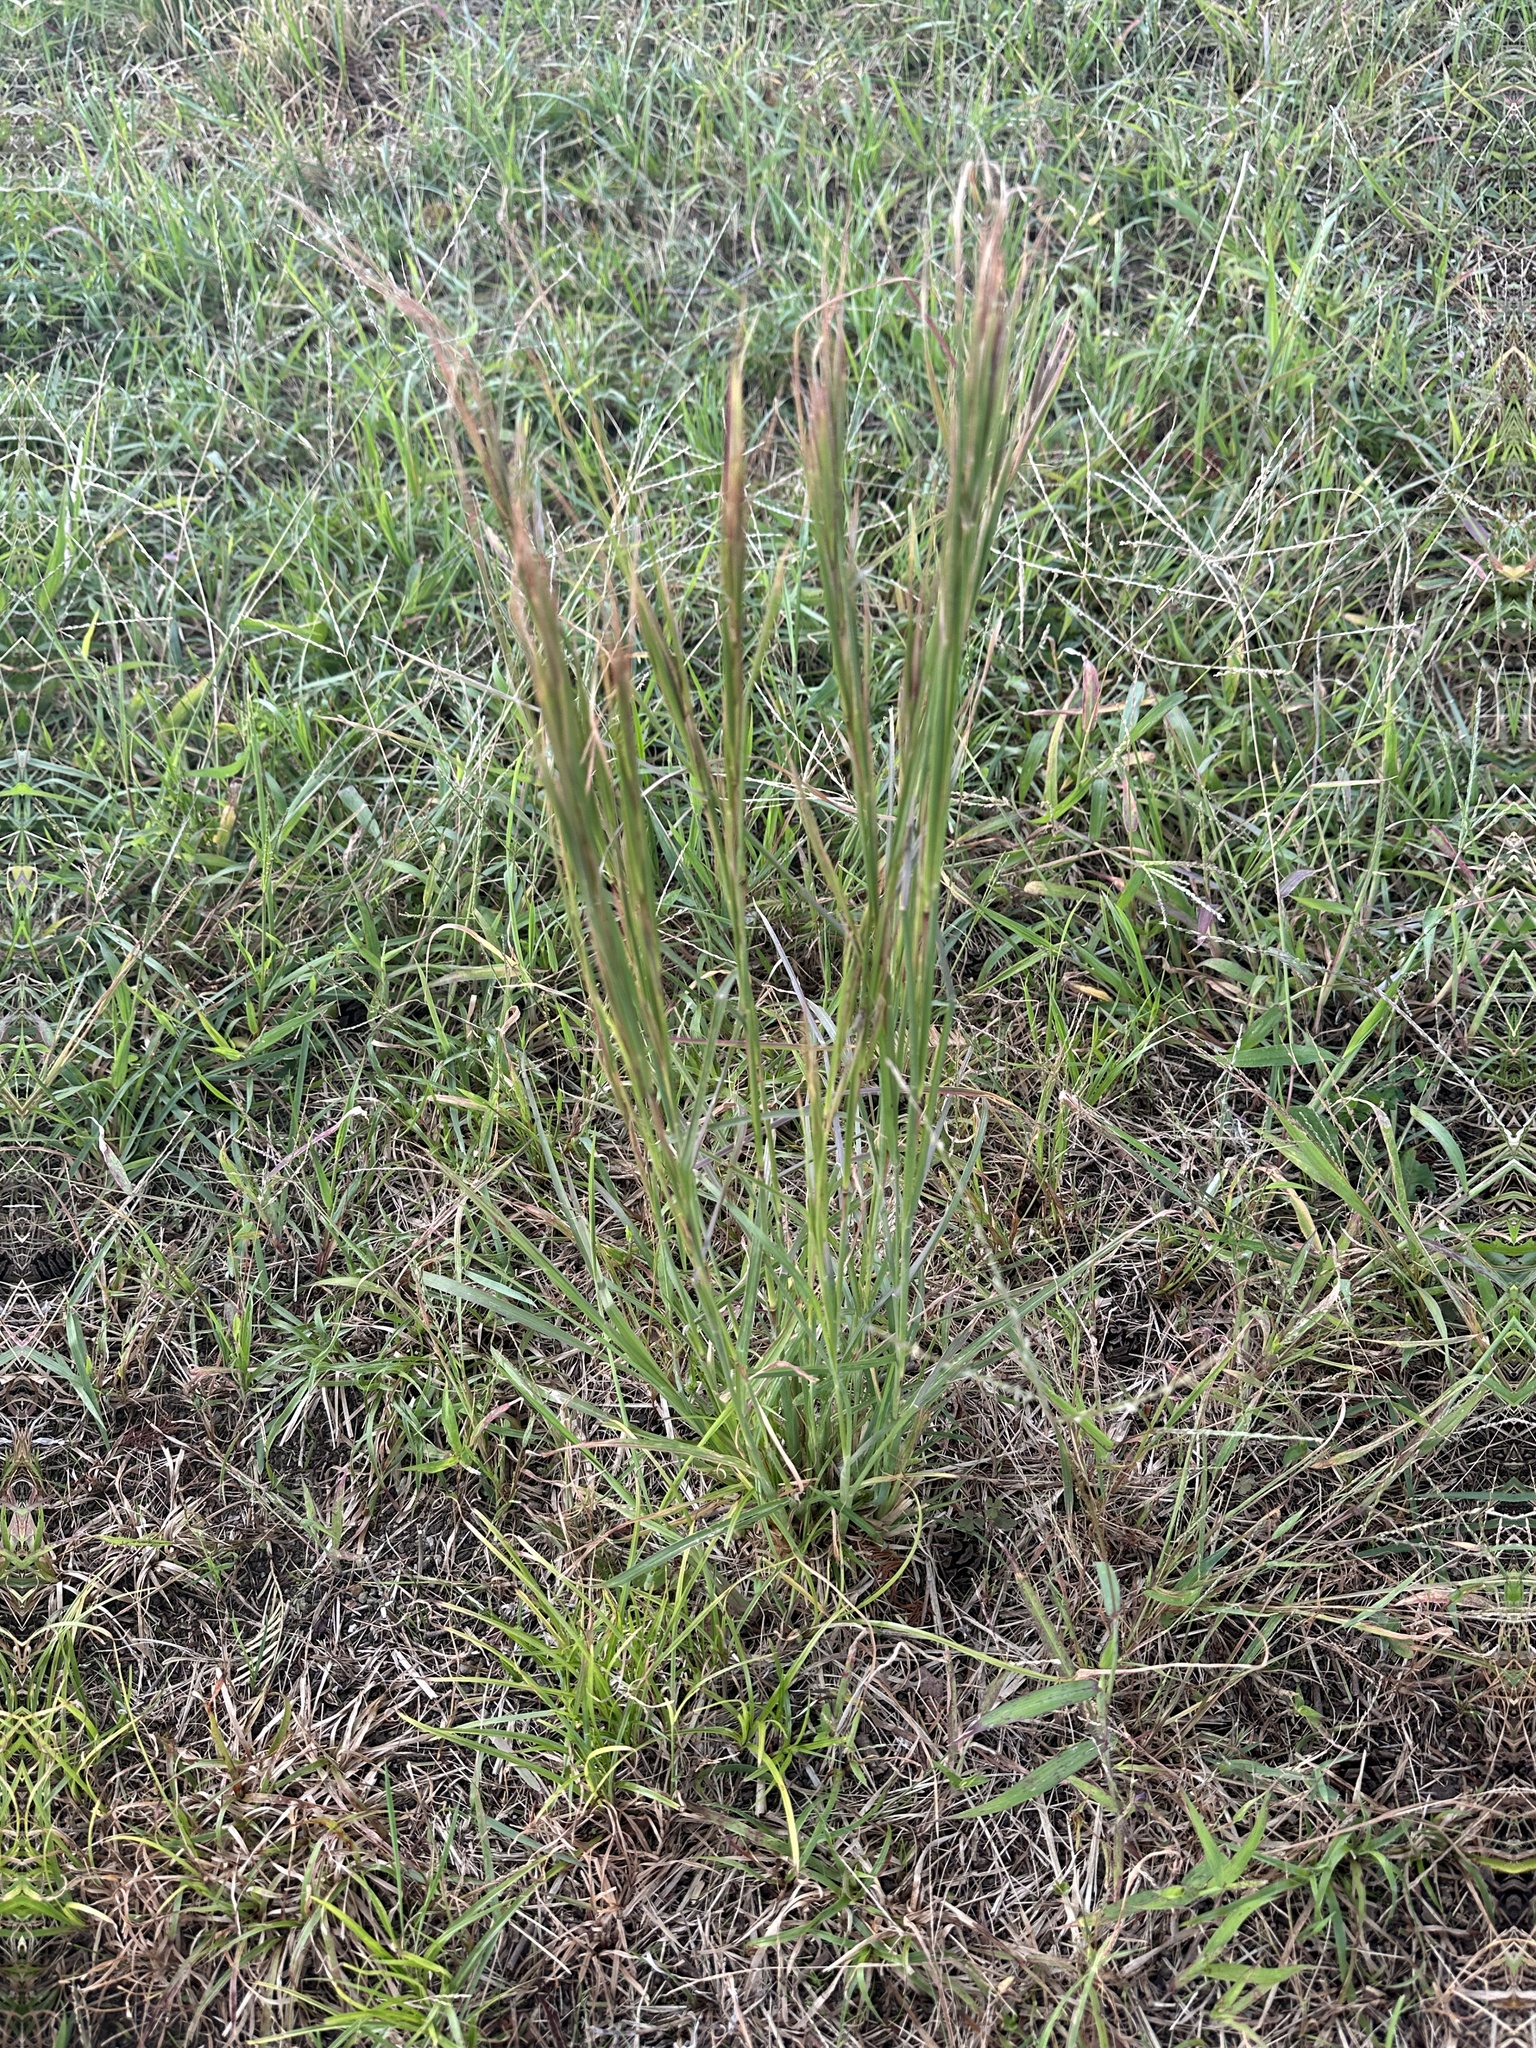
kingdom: Plantae
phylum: Tracheophyta
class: Liliopsida
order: Poales
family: Poaceae
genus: Andropogon
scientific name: Andropogon virginicus
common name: Broomsedge bluestem
